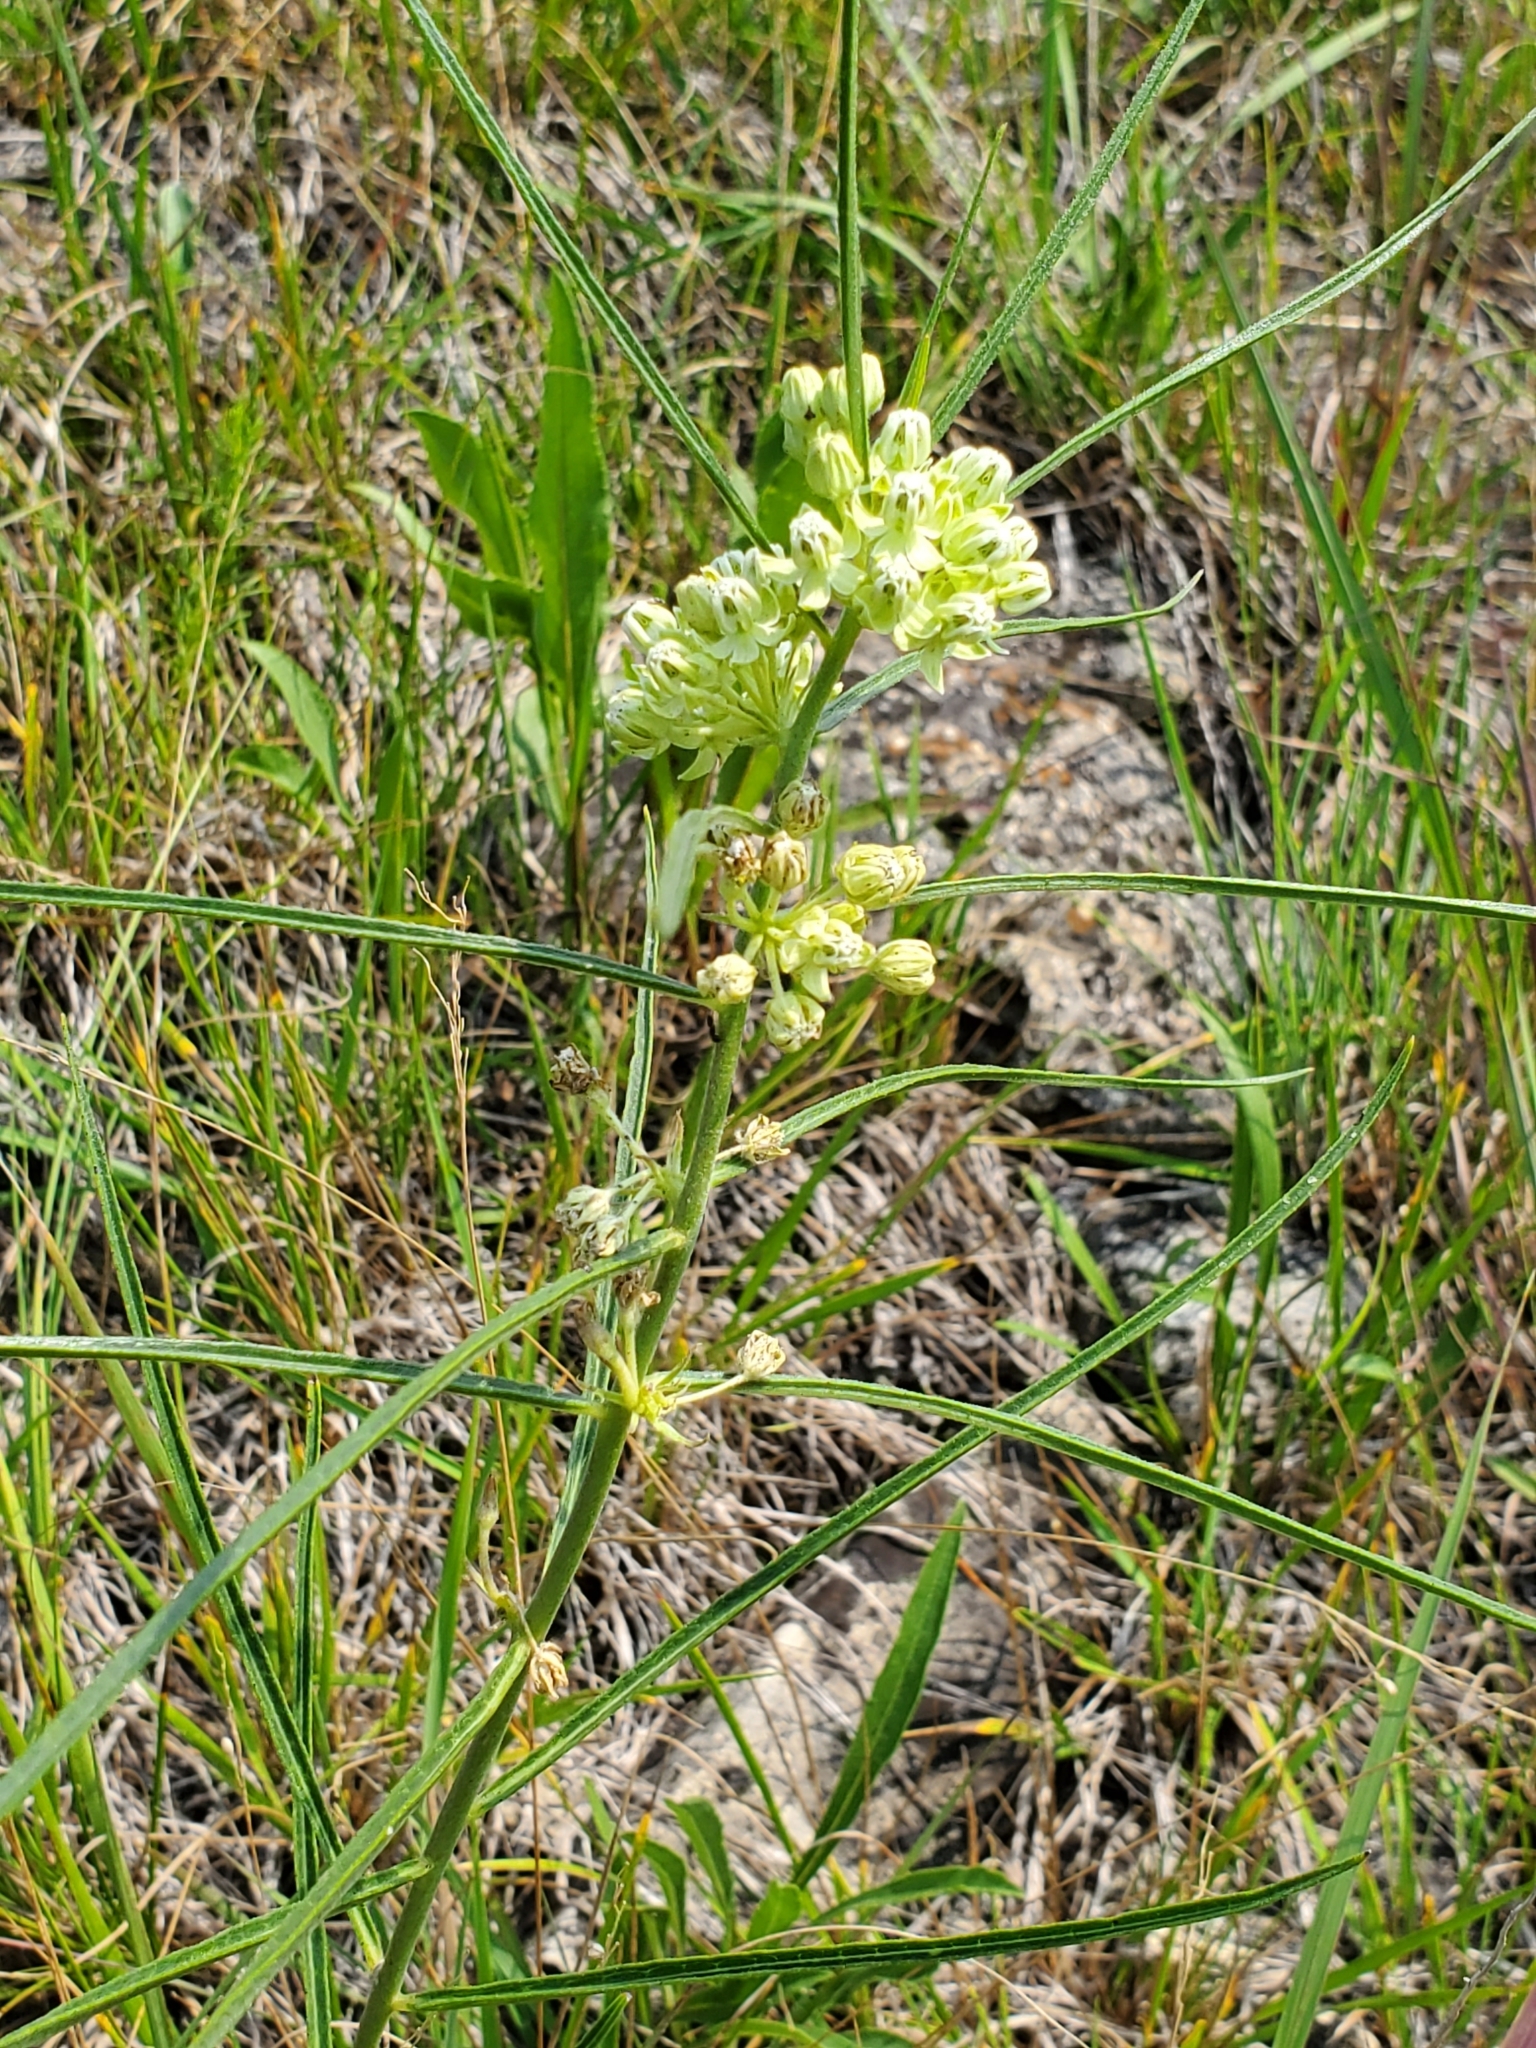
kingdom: Plantae
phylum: Tracheophyta
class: Magnoliopsida
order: Gentianales
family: Apocynaceae
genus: Asclepias
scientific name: Asclepias stenophylla
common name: Narrow-leaf milkweed
